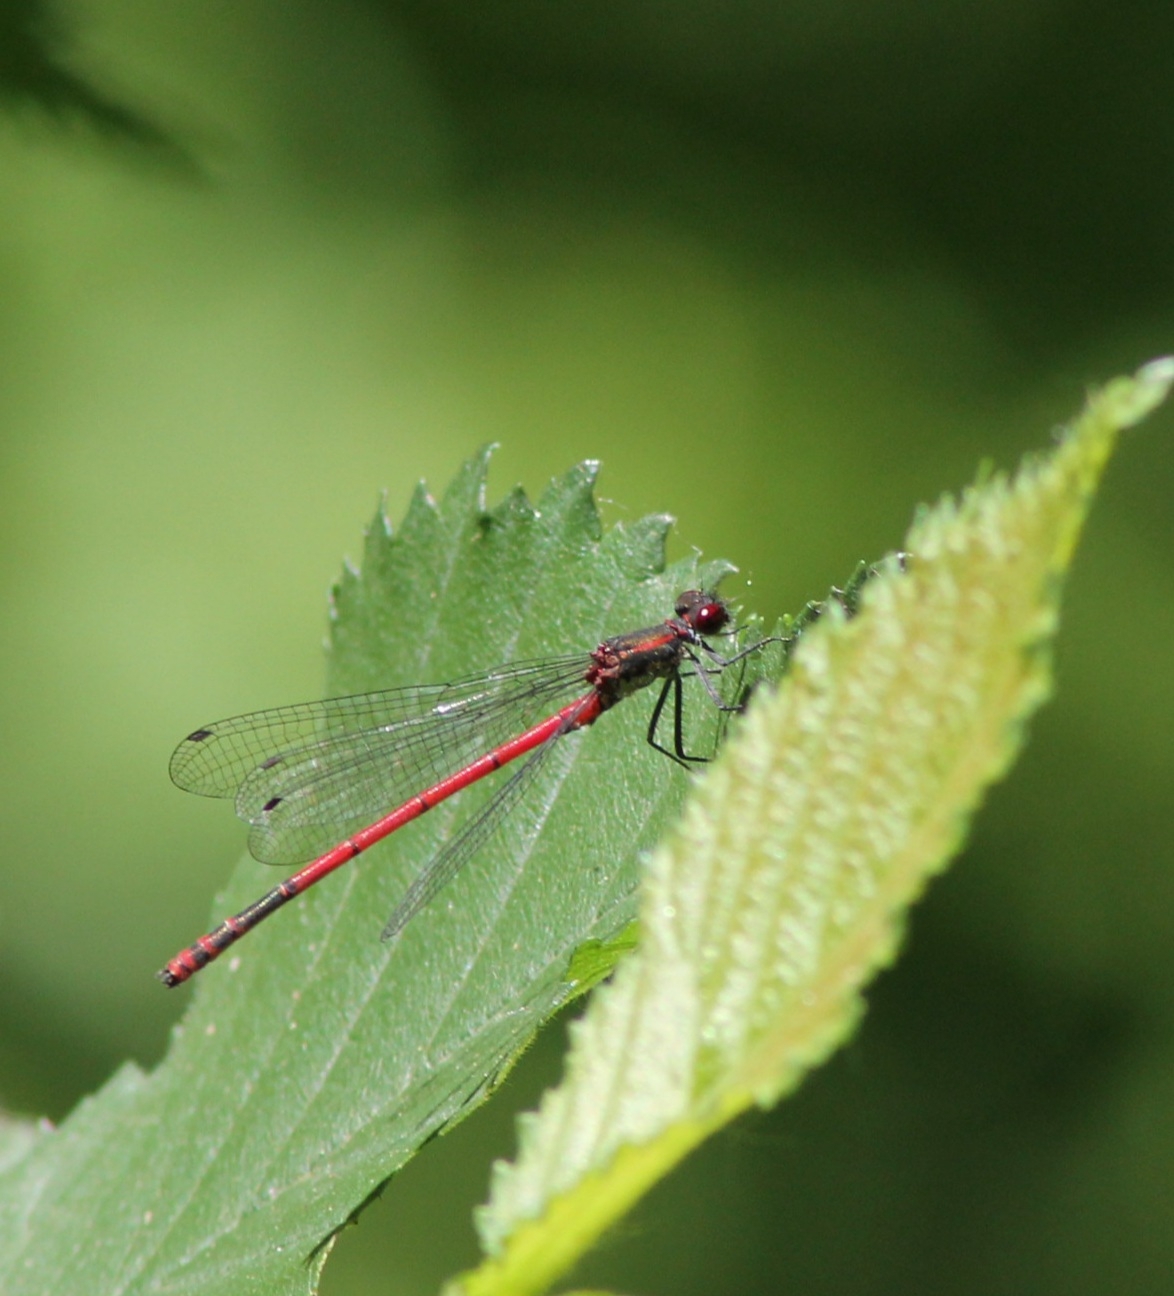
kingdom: Animalia
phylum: Arthropoda
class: Insecta
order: Odonata
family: Coenagrionidae
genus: Pyrrhosoma
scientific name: Pyrrhosoma nymphula
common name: Large red damsel
